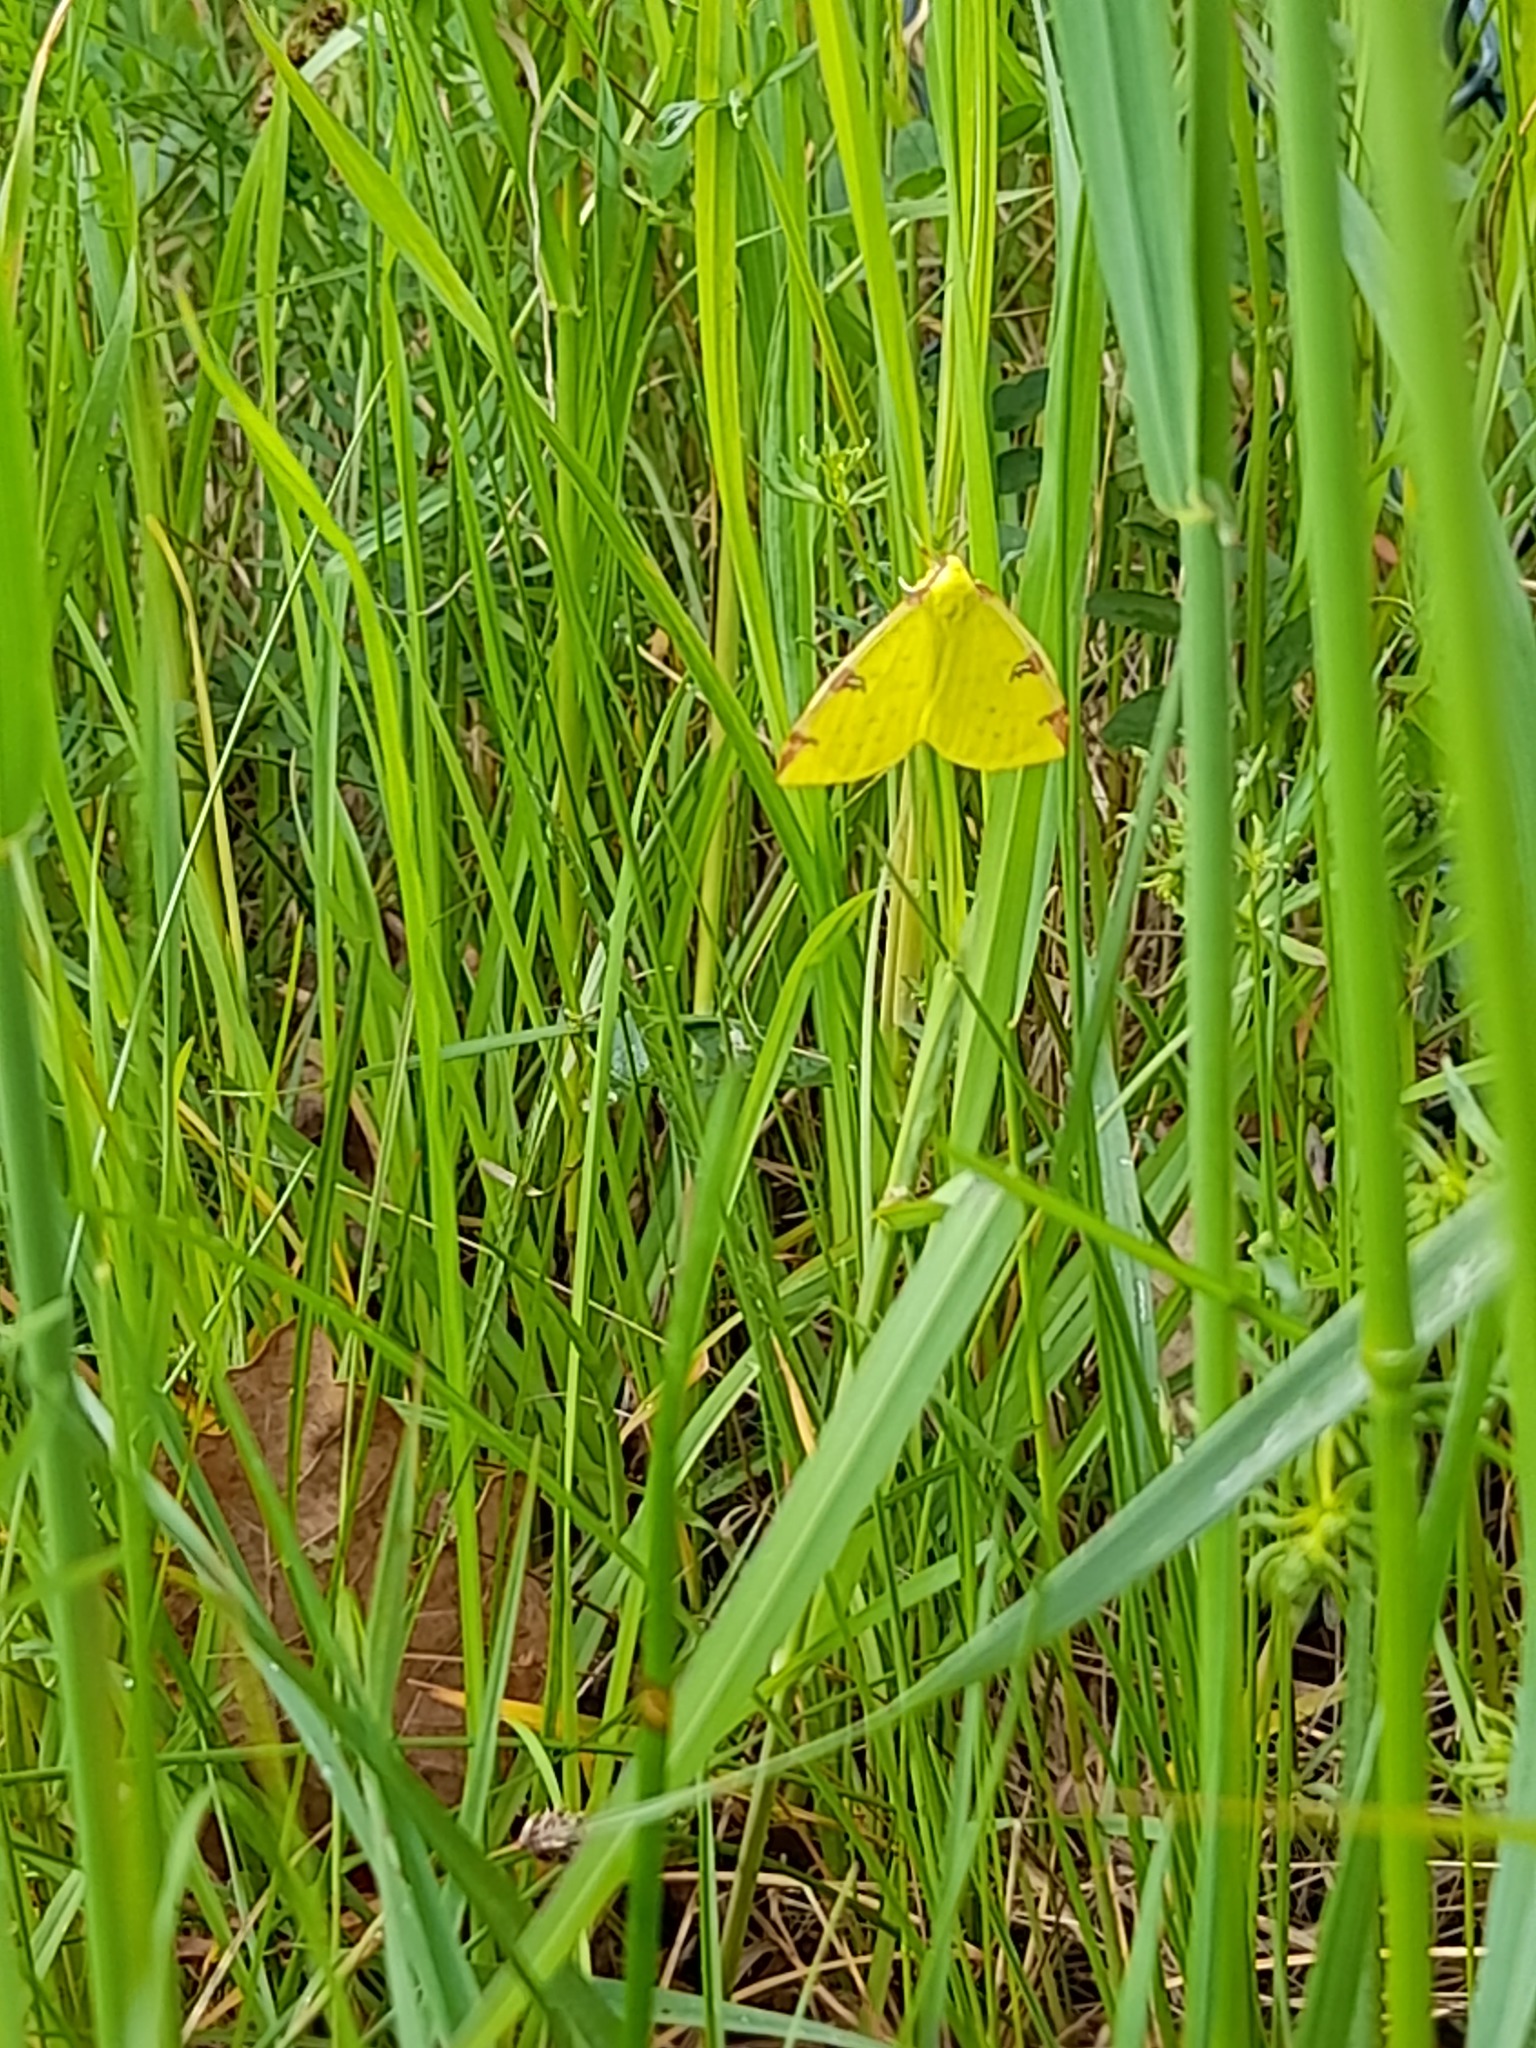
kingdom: Animalia
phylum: Arthropoda
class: Insecta
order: Lepidoptera
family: Geometridae
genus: Opisthograptis
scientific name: Opisthograptis luteolata
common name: Brimstone moth
